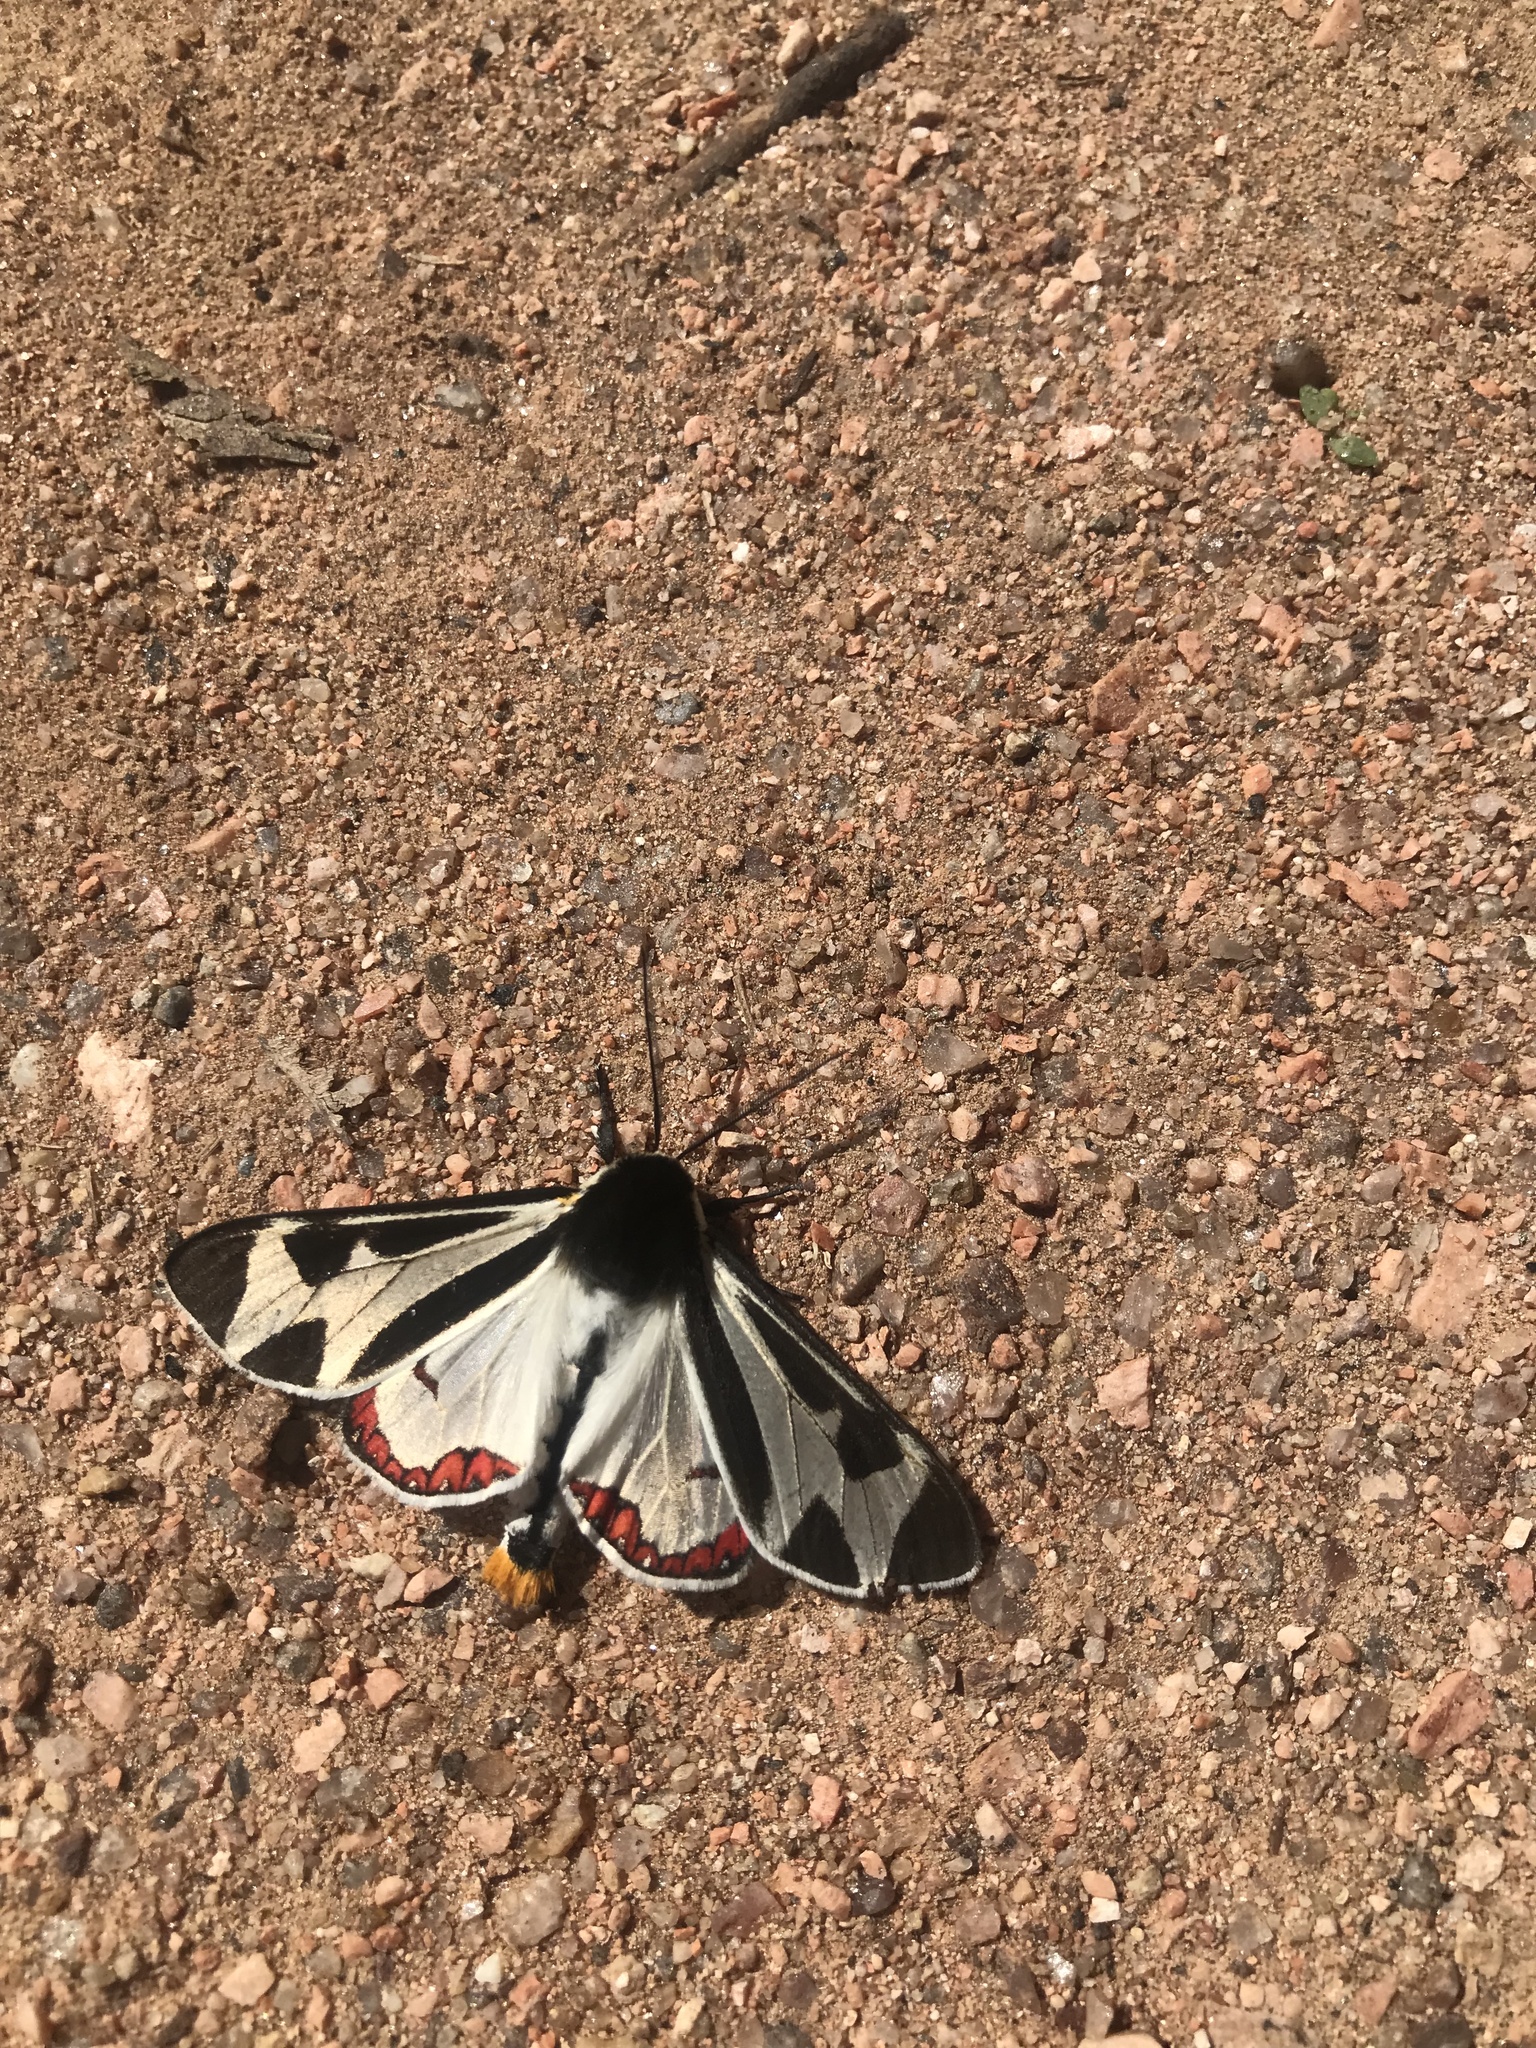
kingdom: Animalia
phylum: Arthropoda
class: Insecta
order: Lepidoptera
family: Erebidae
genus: Dysschema
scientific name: Dysschema centenaria
